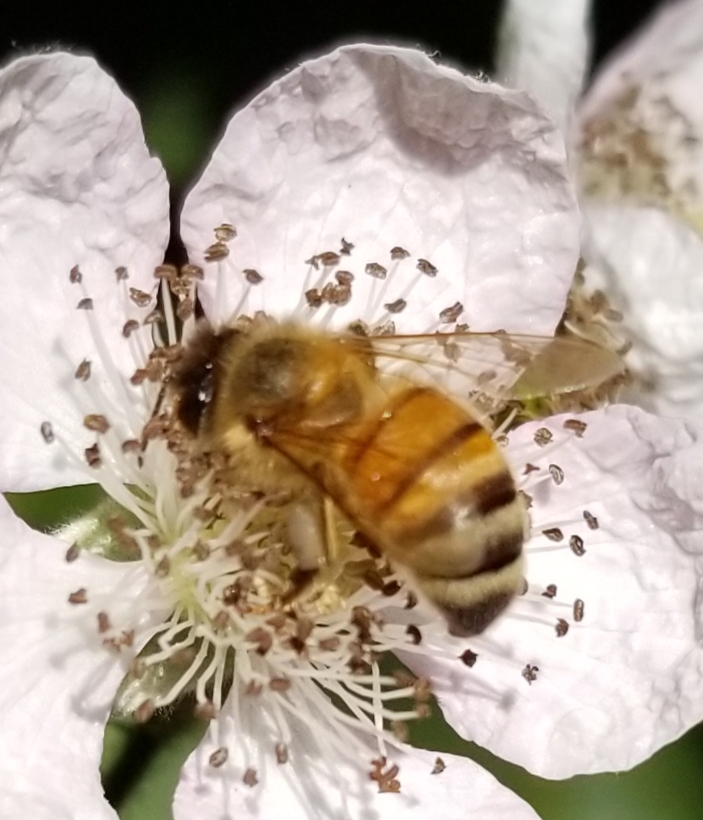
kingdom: Animalia
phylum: Arthropoda
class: Insecta
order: Hymenoptera
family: Apidae
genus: Apis
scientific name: Apis mellifera
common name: Honey bee
